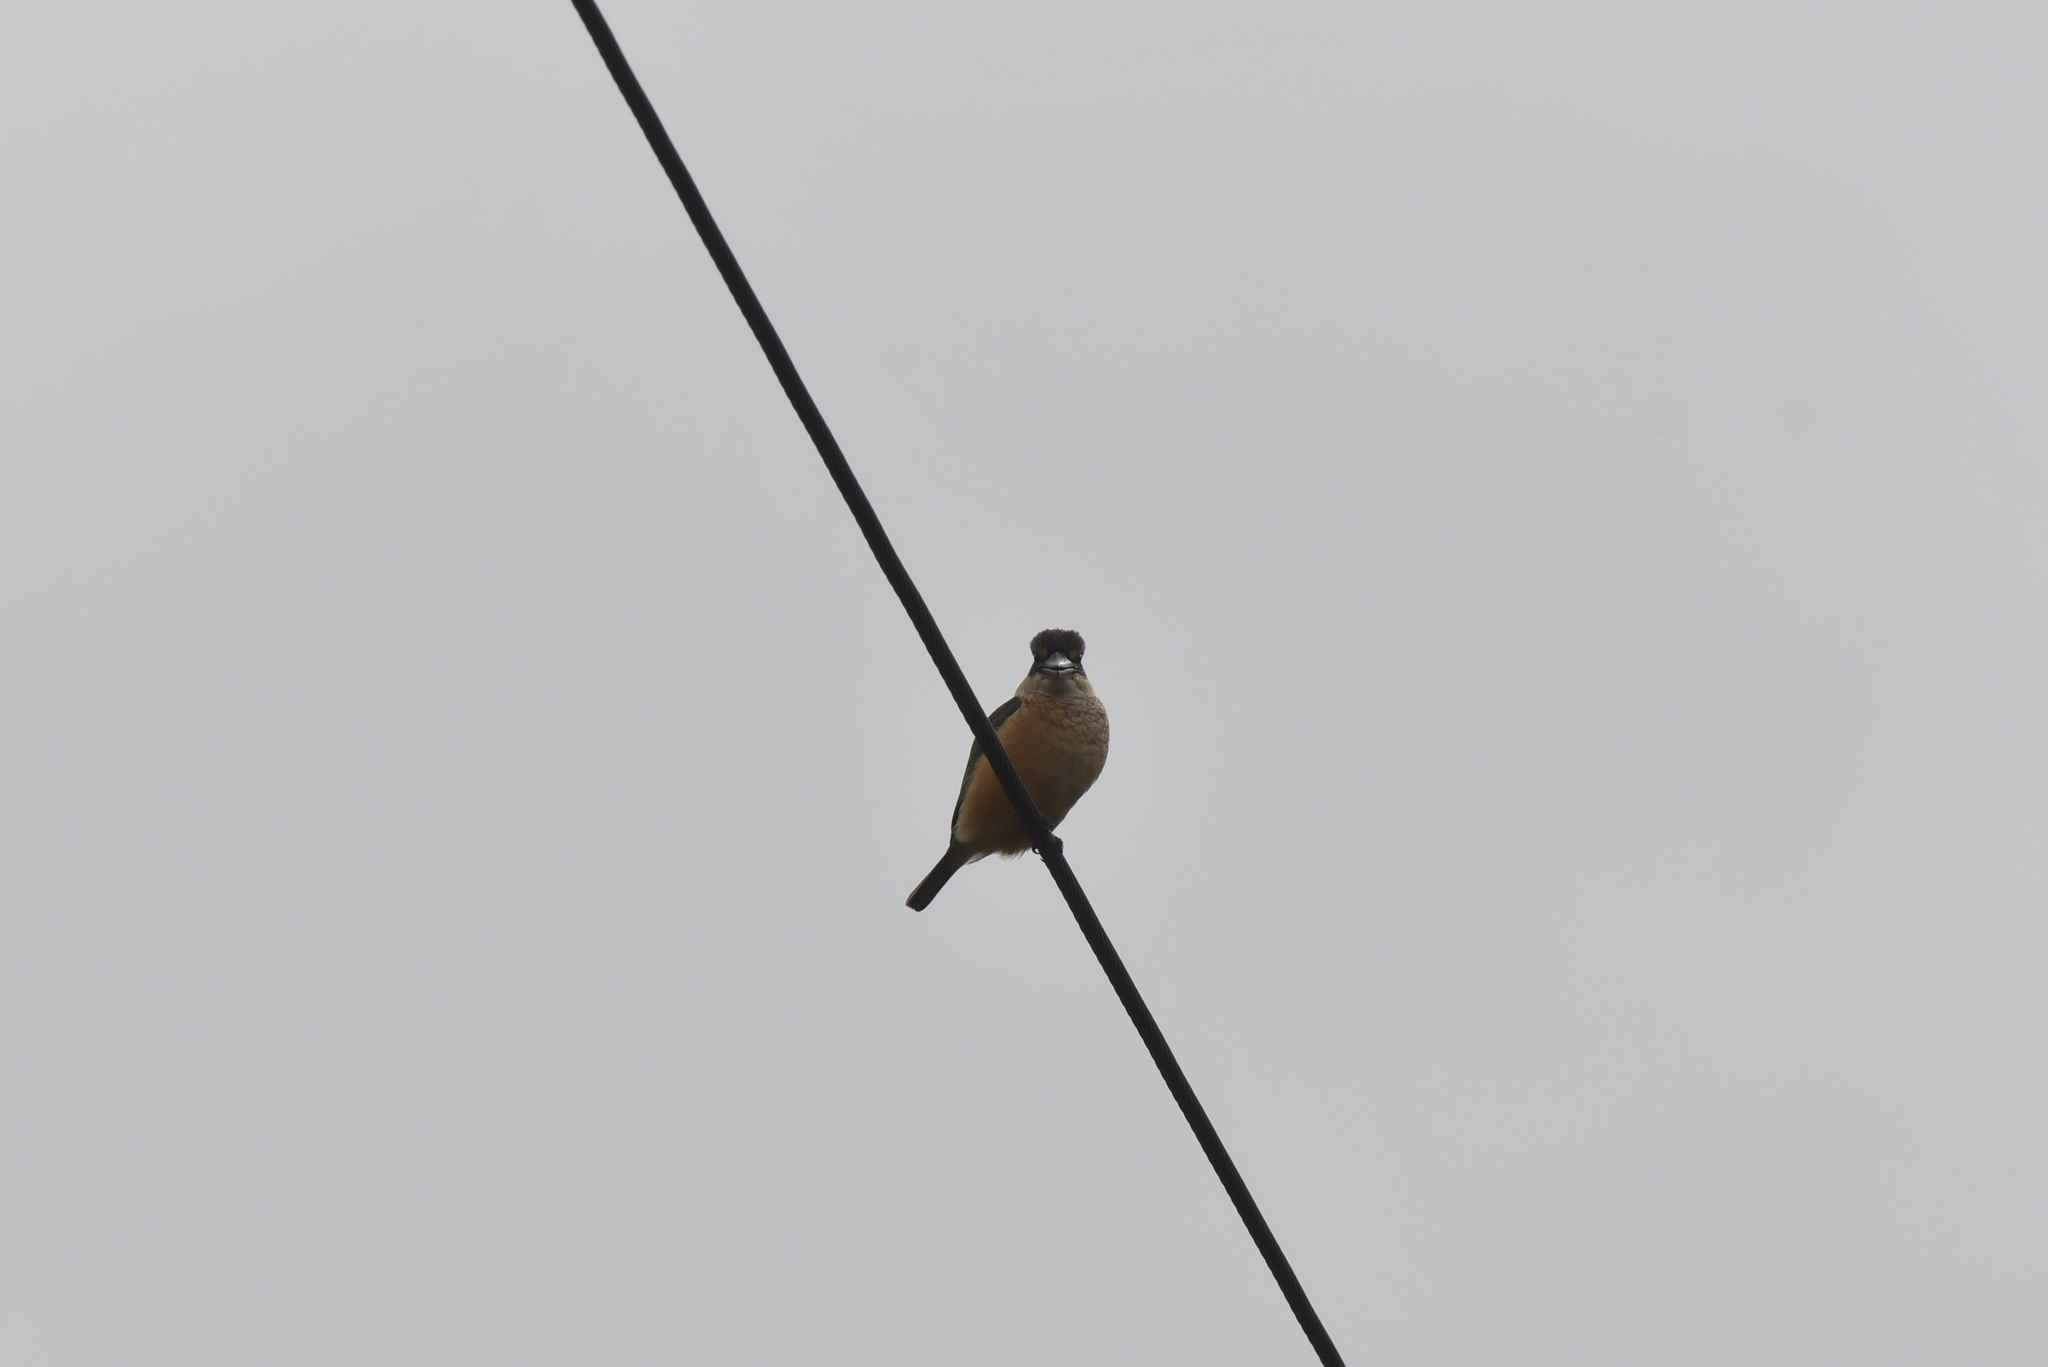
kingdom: Animalia
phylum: Chordata
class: Aves
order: Coraciiformes
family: Alcedinidae
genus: Todiramphus
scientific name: Todiramphus sanctus
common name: Sacred kingfisher
